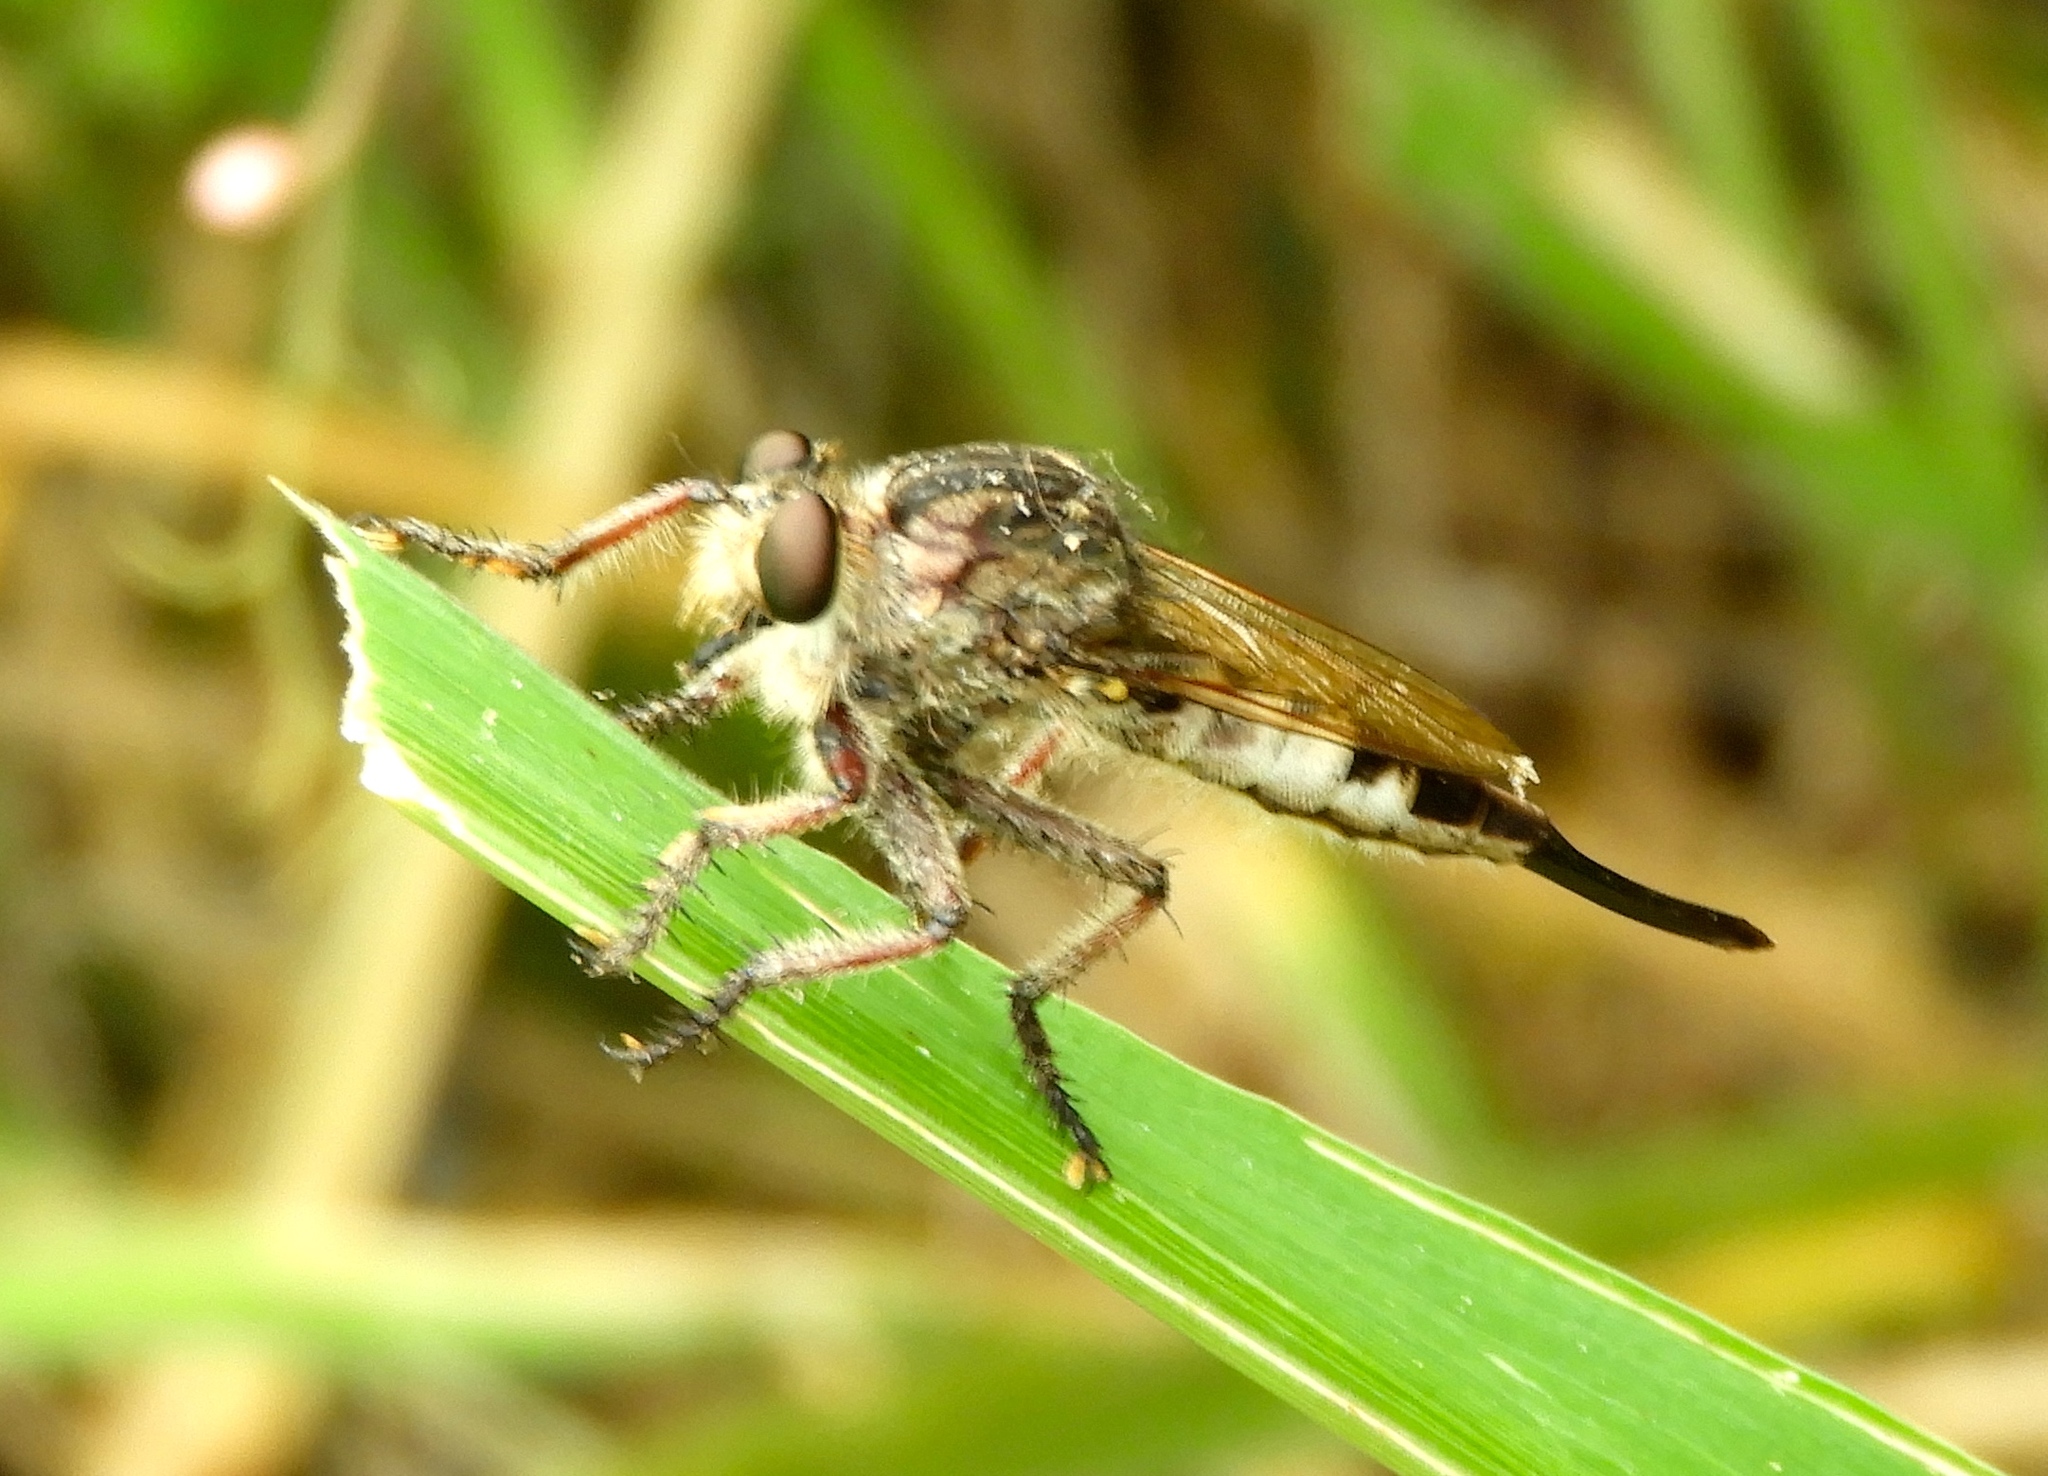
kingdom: Animalia
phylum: Arthropoda
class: Insecta
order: Diptera
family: Asilidae
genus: Efferia
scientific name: Efferia
